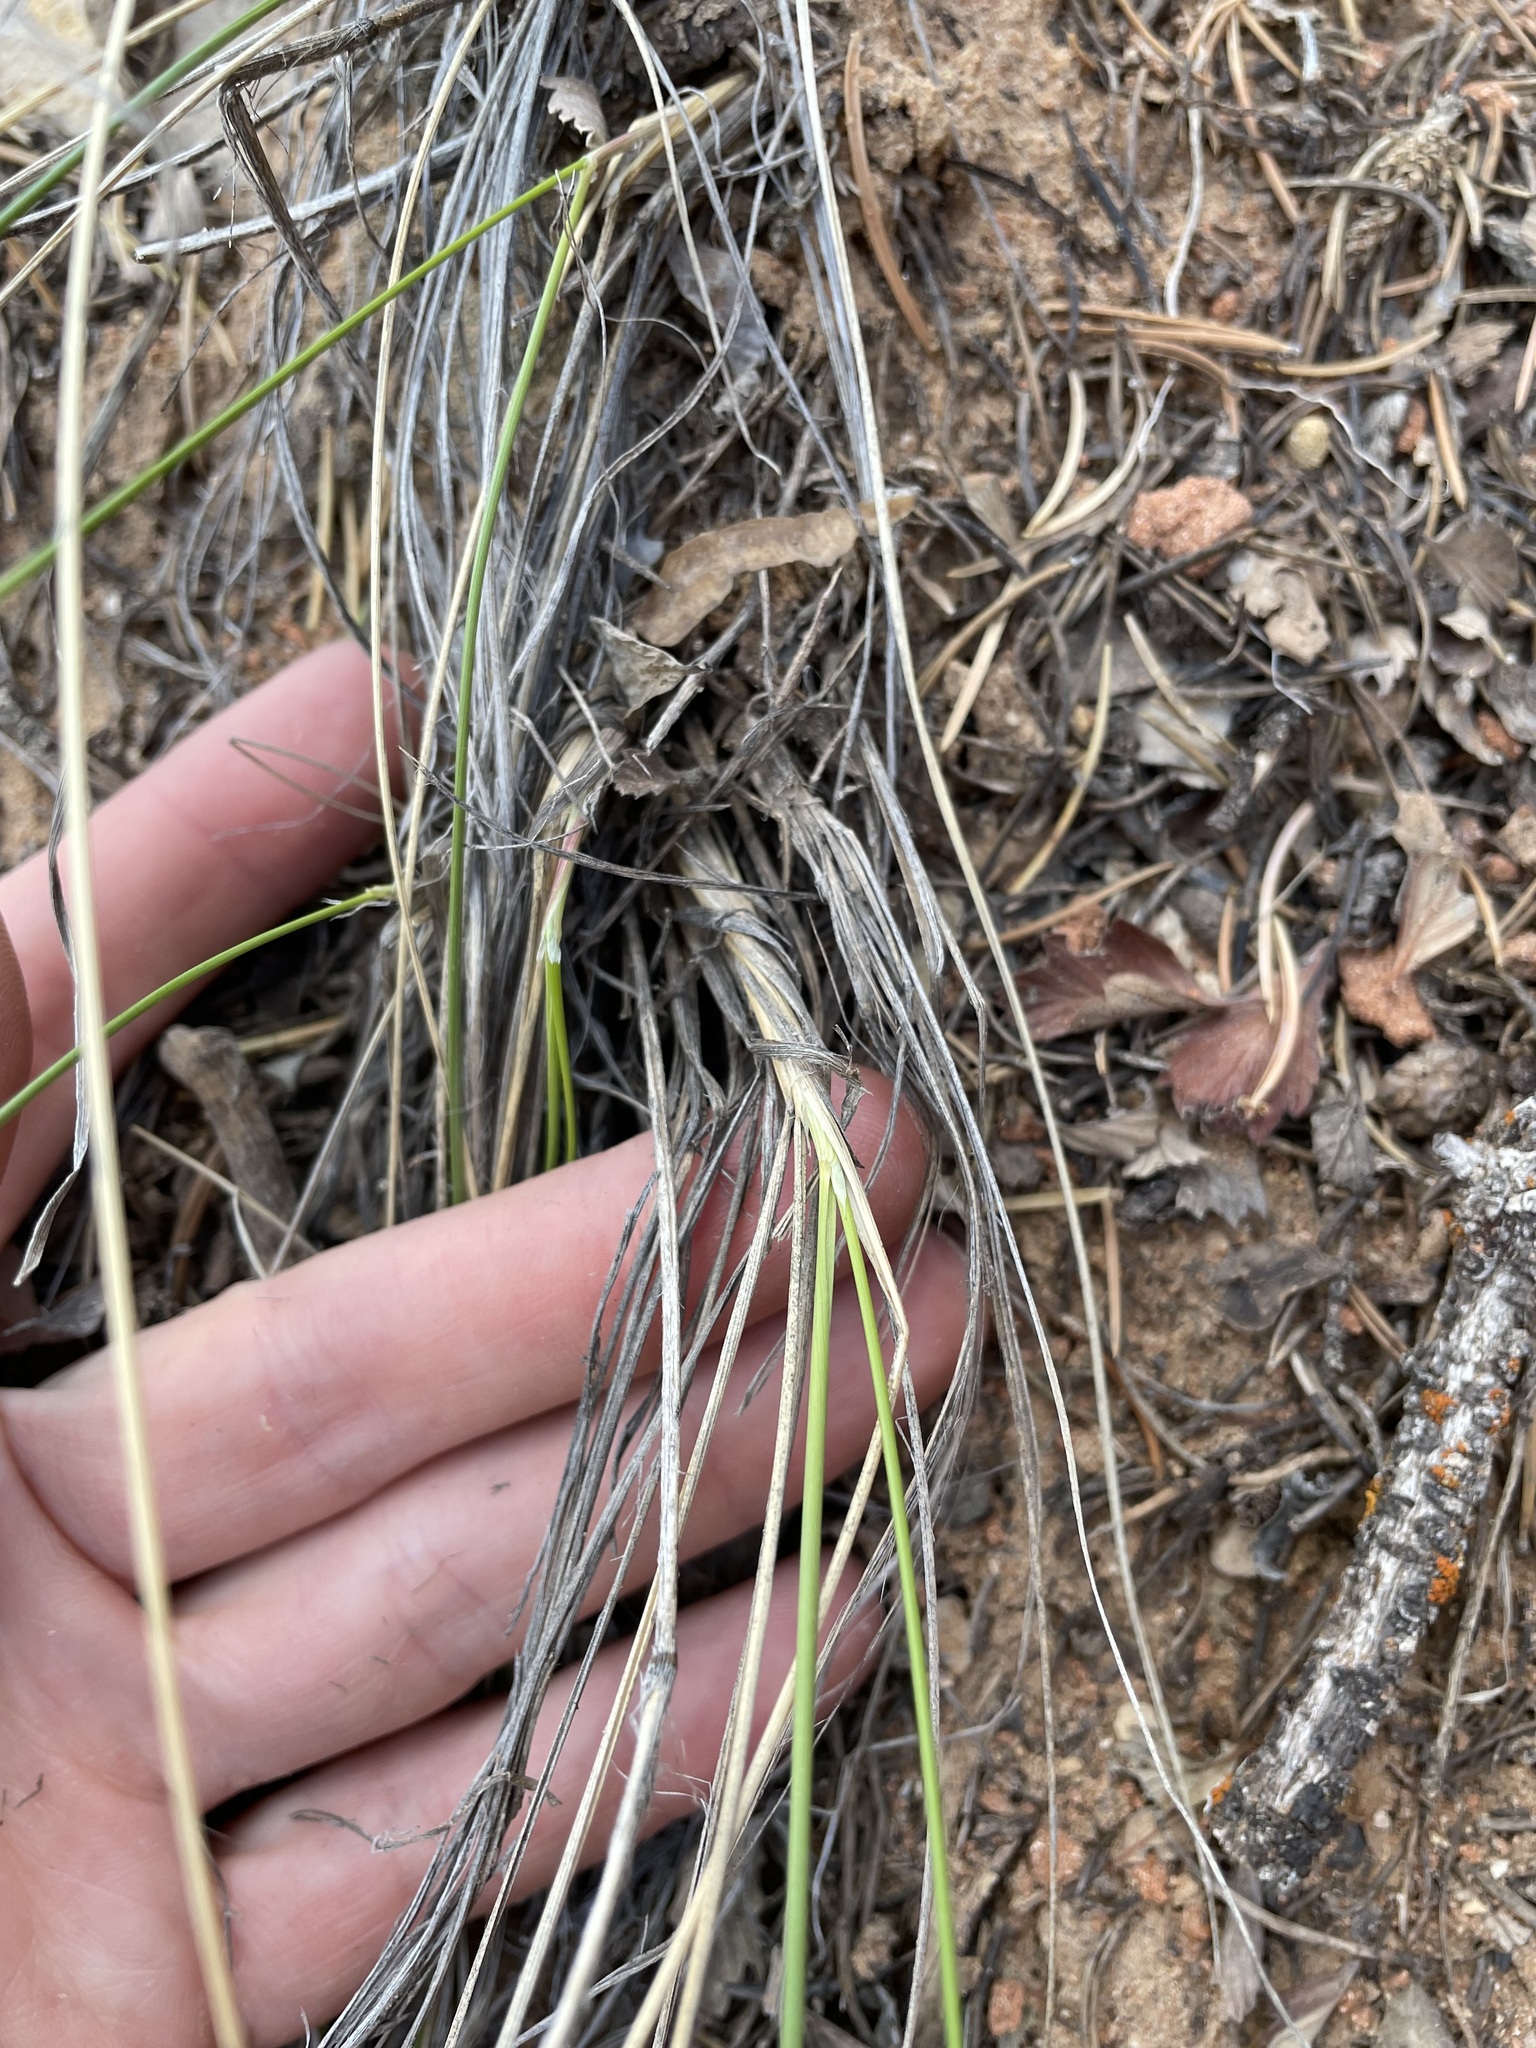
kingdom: Plantae
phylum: Tracheophyta
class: Liliopsida
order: Poales
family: Poaceae
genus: Eriocoma
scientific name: Eriocoma hymenoides
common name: Indian mountain ricegrass
